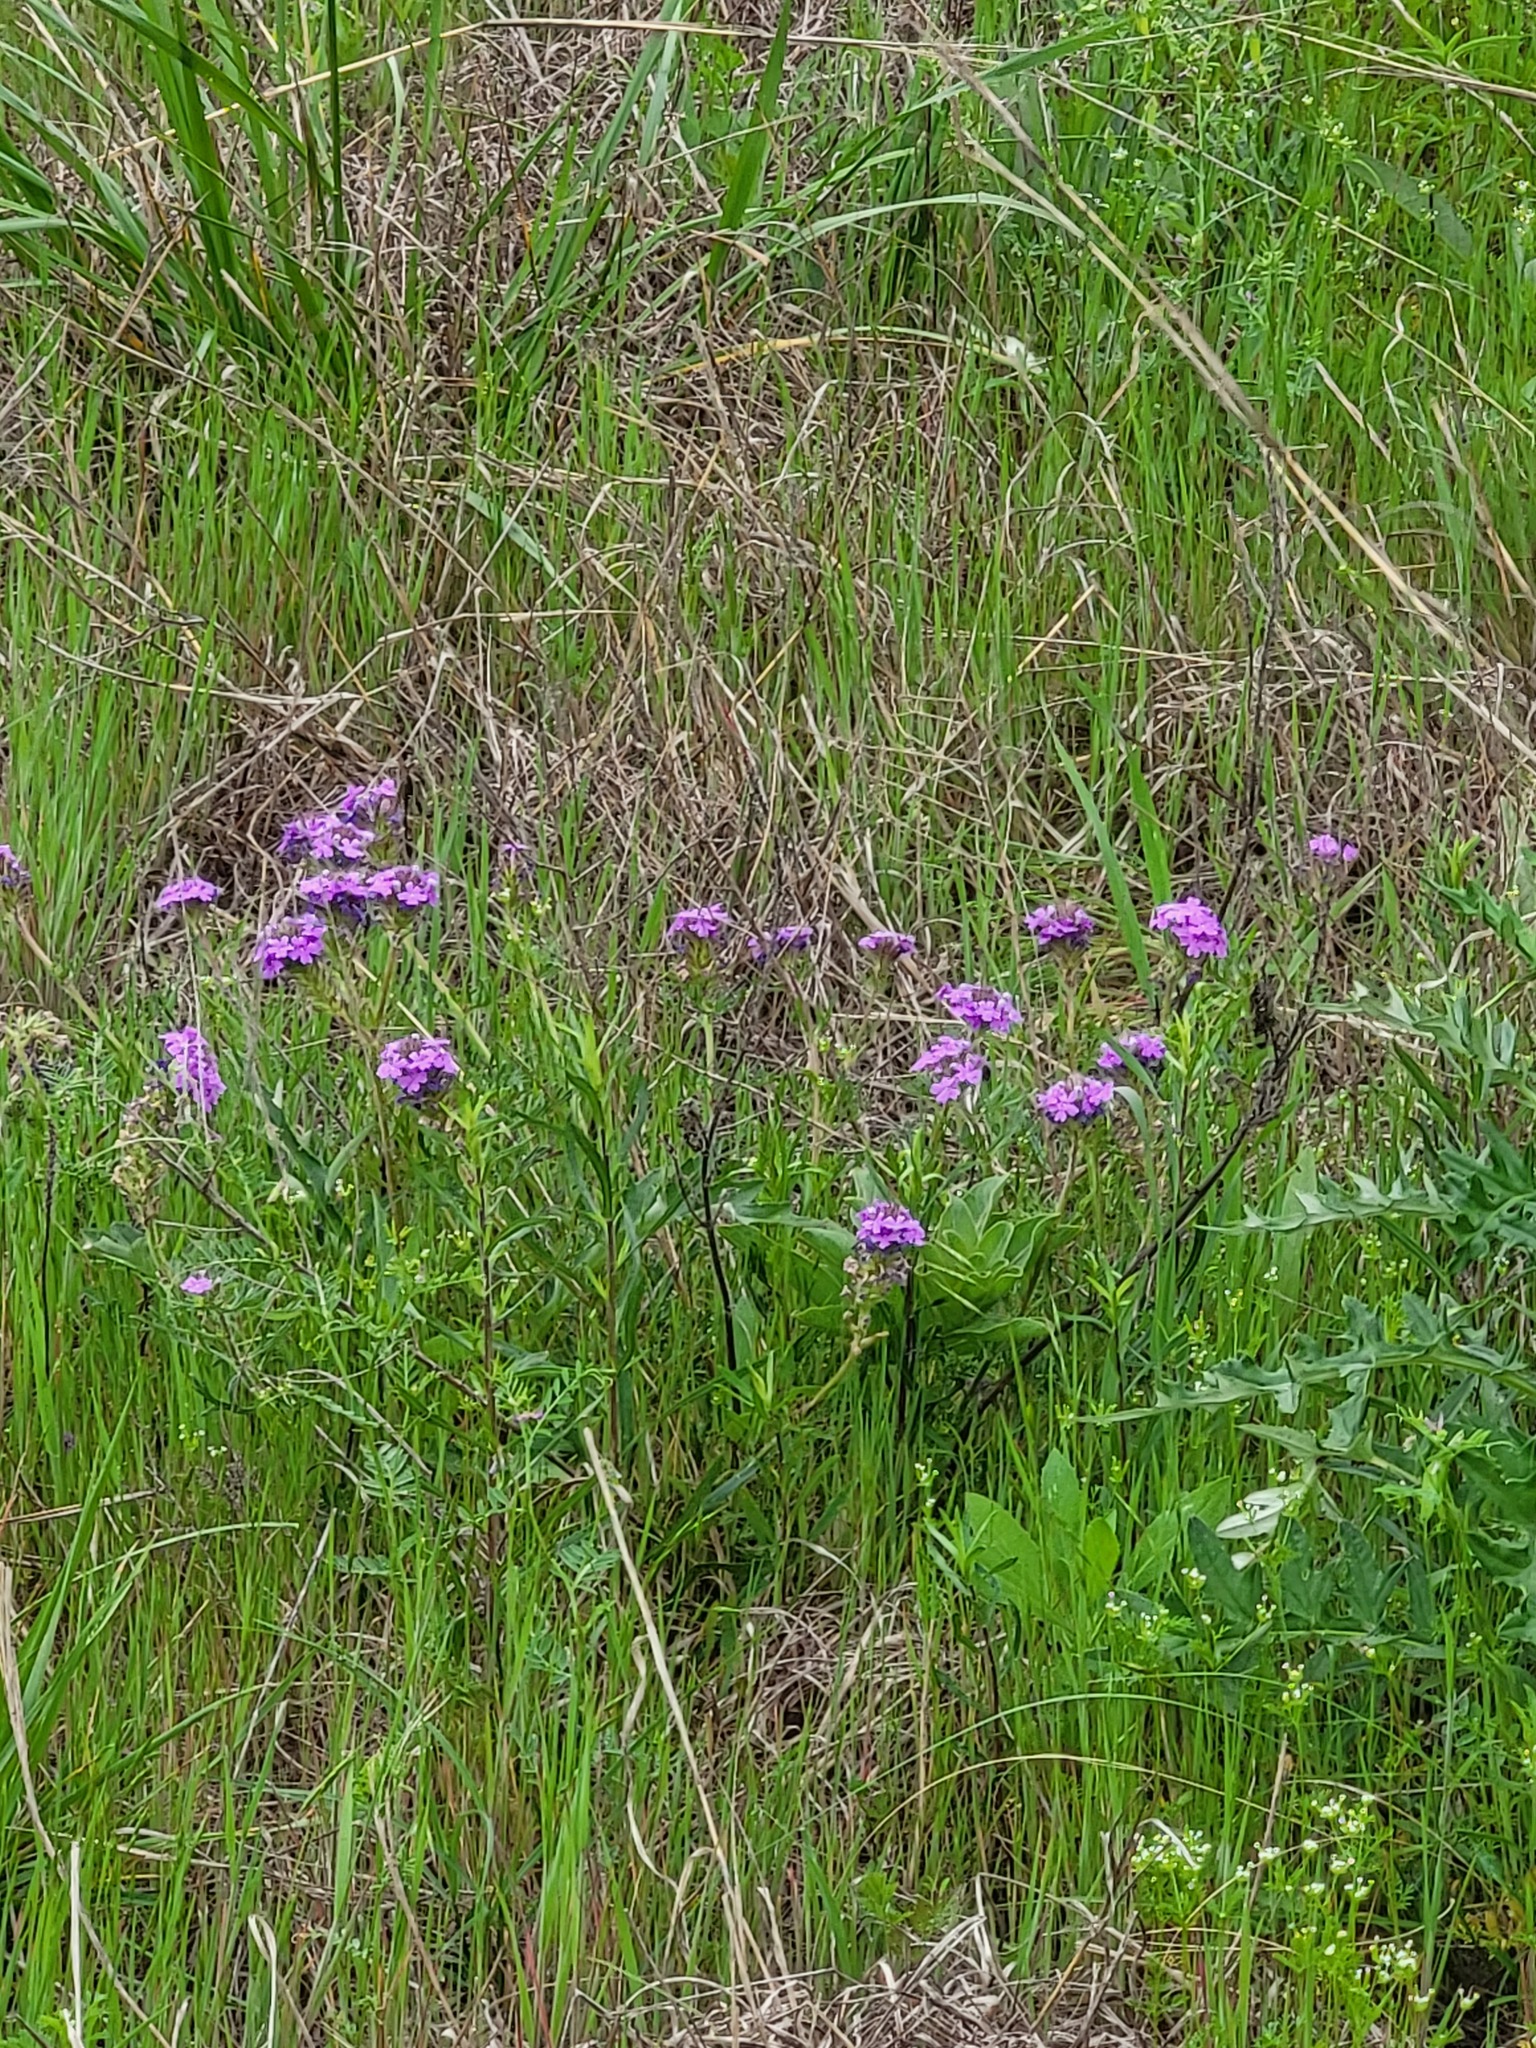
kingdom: Plantae
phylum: Tracheophyta
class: Magnoliopsida
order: Lamiales
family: Verbenaceae
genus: Verbena
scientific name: Verbena bipinnatifida
